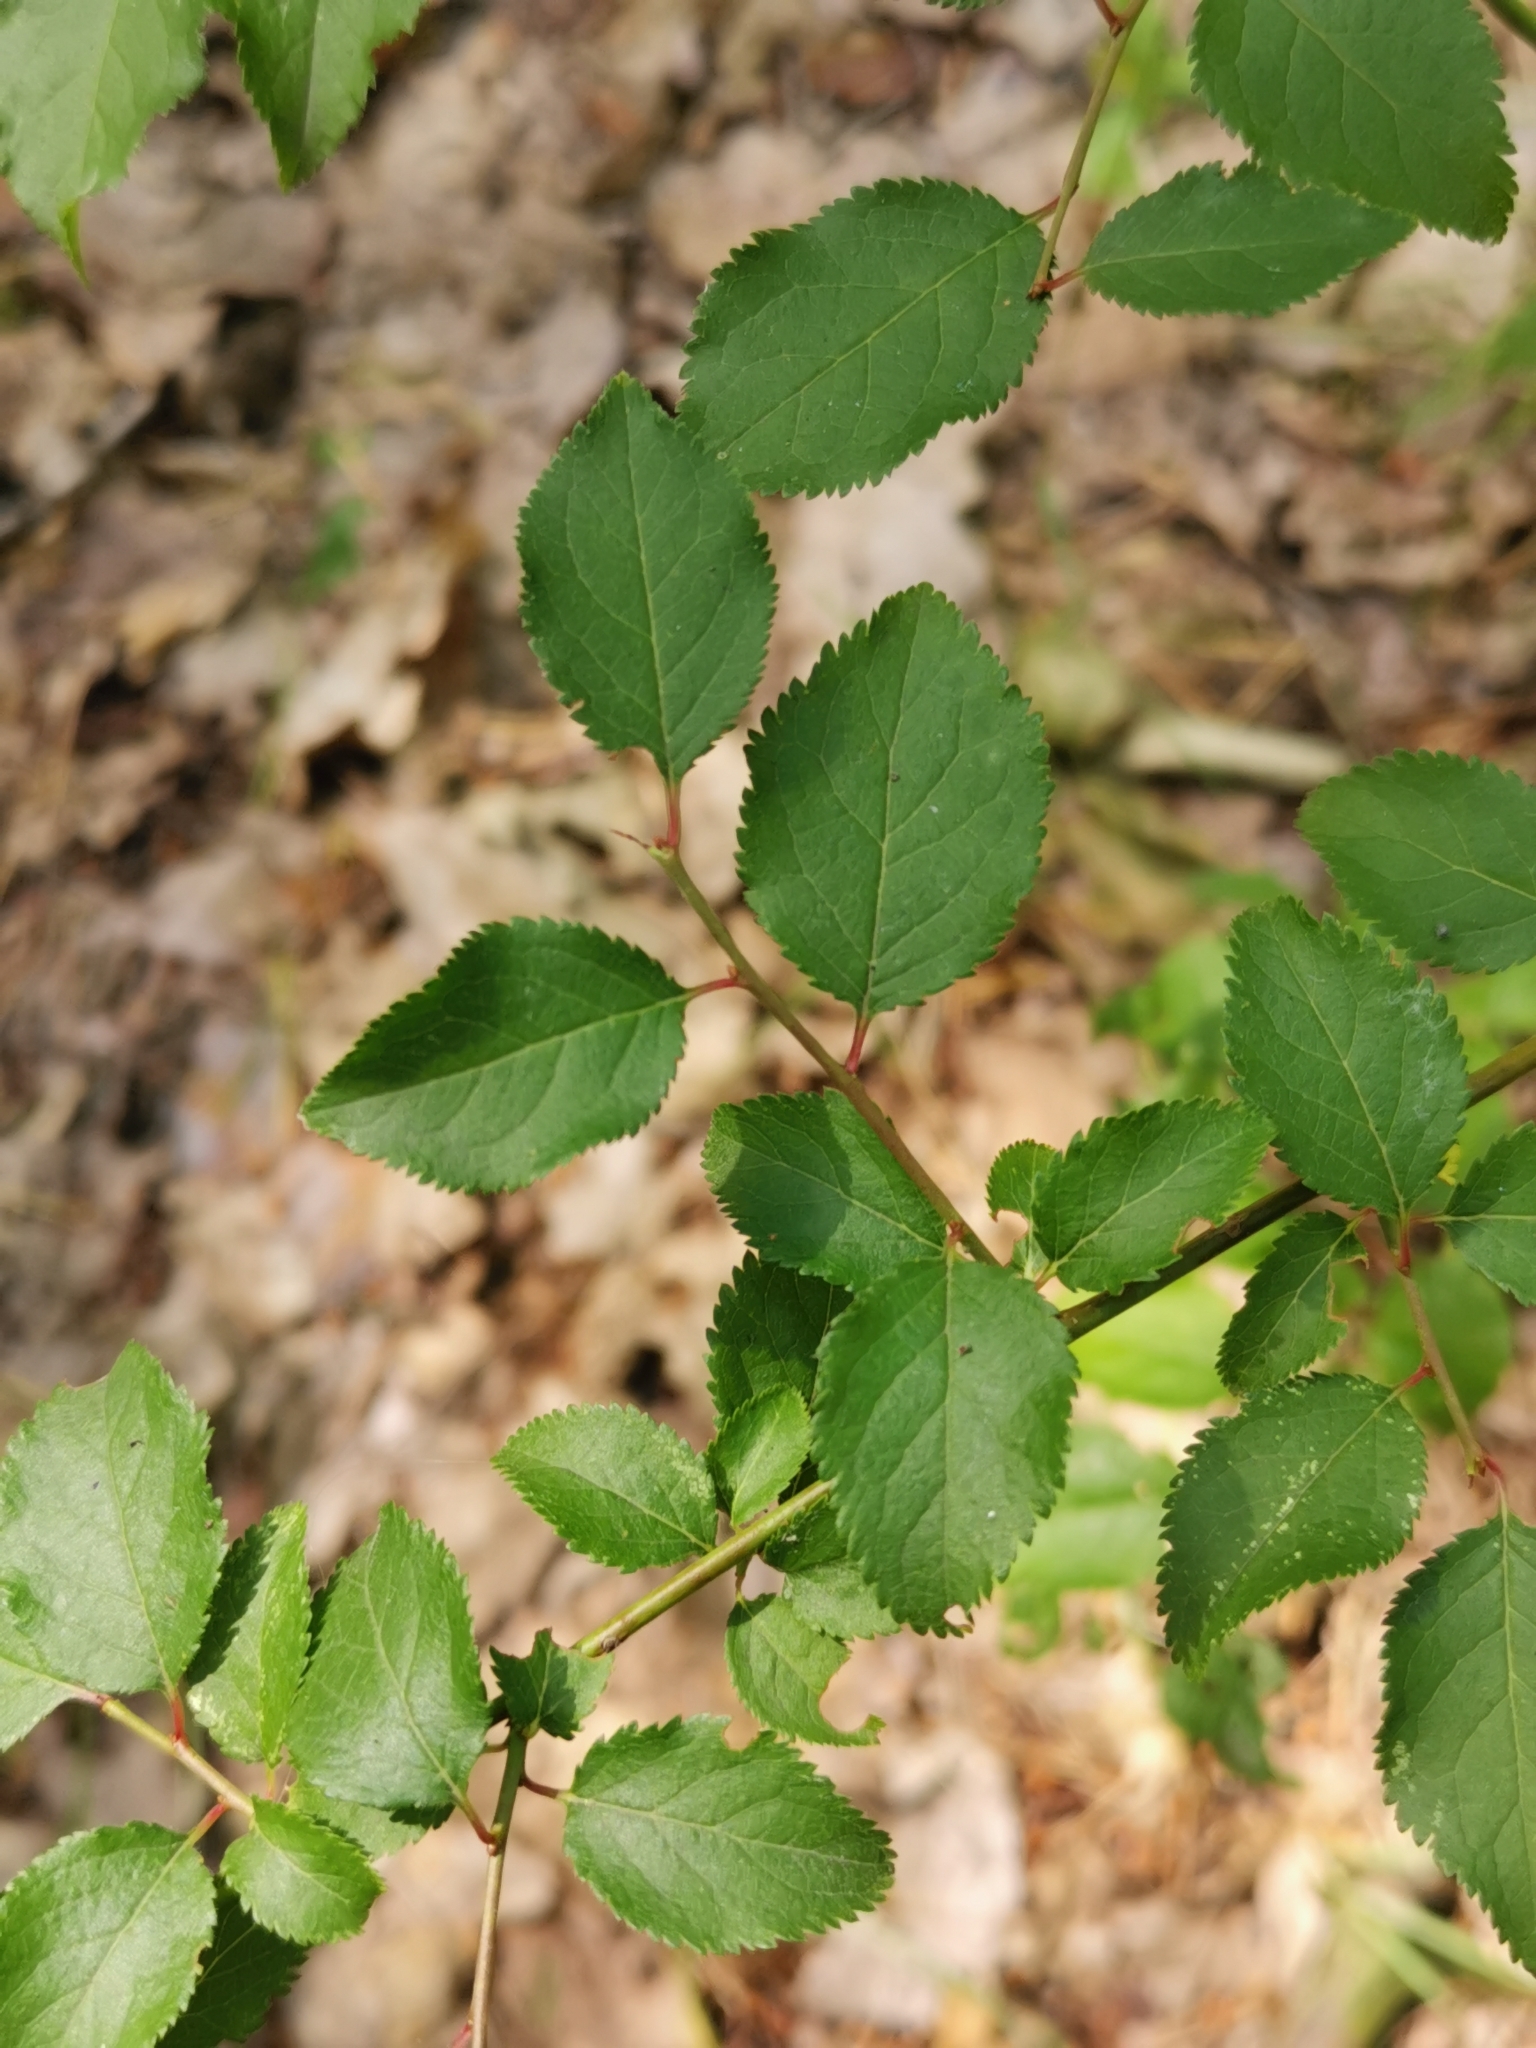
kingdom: Plantae
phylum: Tracheophyta
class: Magnoliopsida
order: Rosales
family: Rosaceae
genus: Prunus
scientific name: Prunus cerasifera
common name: Cherry plum
